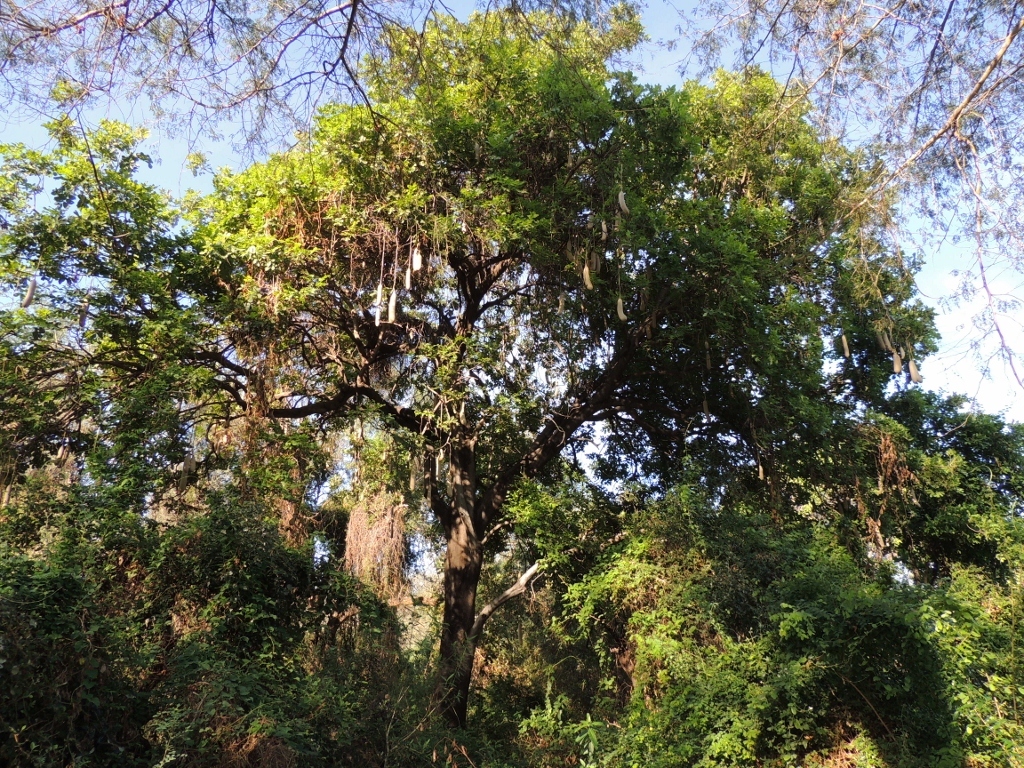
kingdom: Plantae
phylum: Tracheophyta
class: Magnoliopsida
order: Lamiales
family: Bignoniaceae
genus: Kigelia
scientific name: Kigelia africana
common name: Sausage tree
